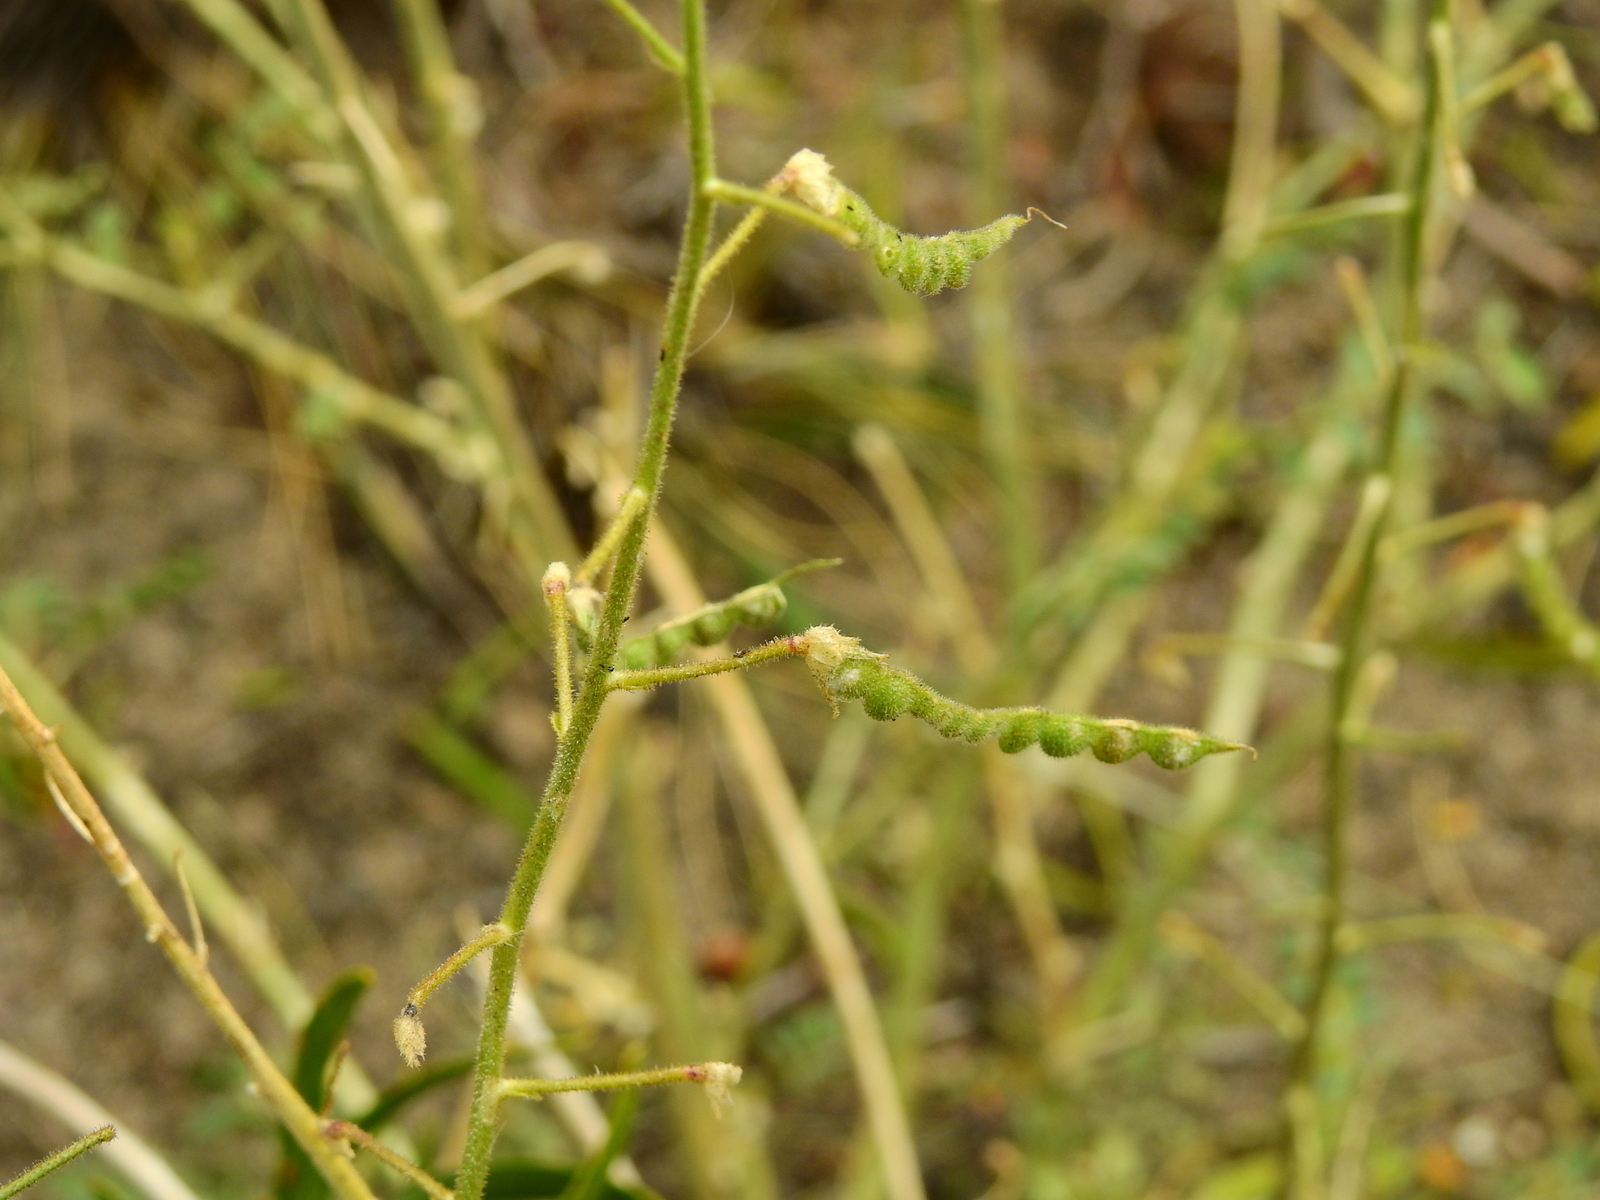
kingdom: Plantae
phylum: Tracheophyta
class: Magnoliopsida
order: Fabales
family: Fabaceae
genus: Adesmia
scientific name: Adesmia grandiflora
